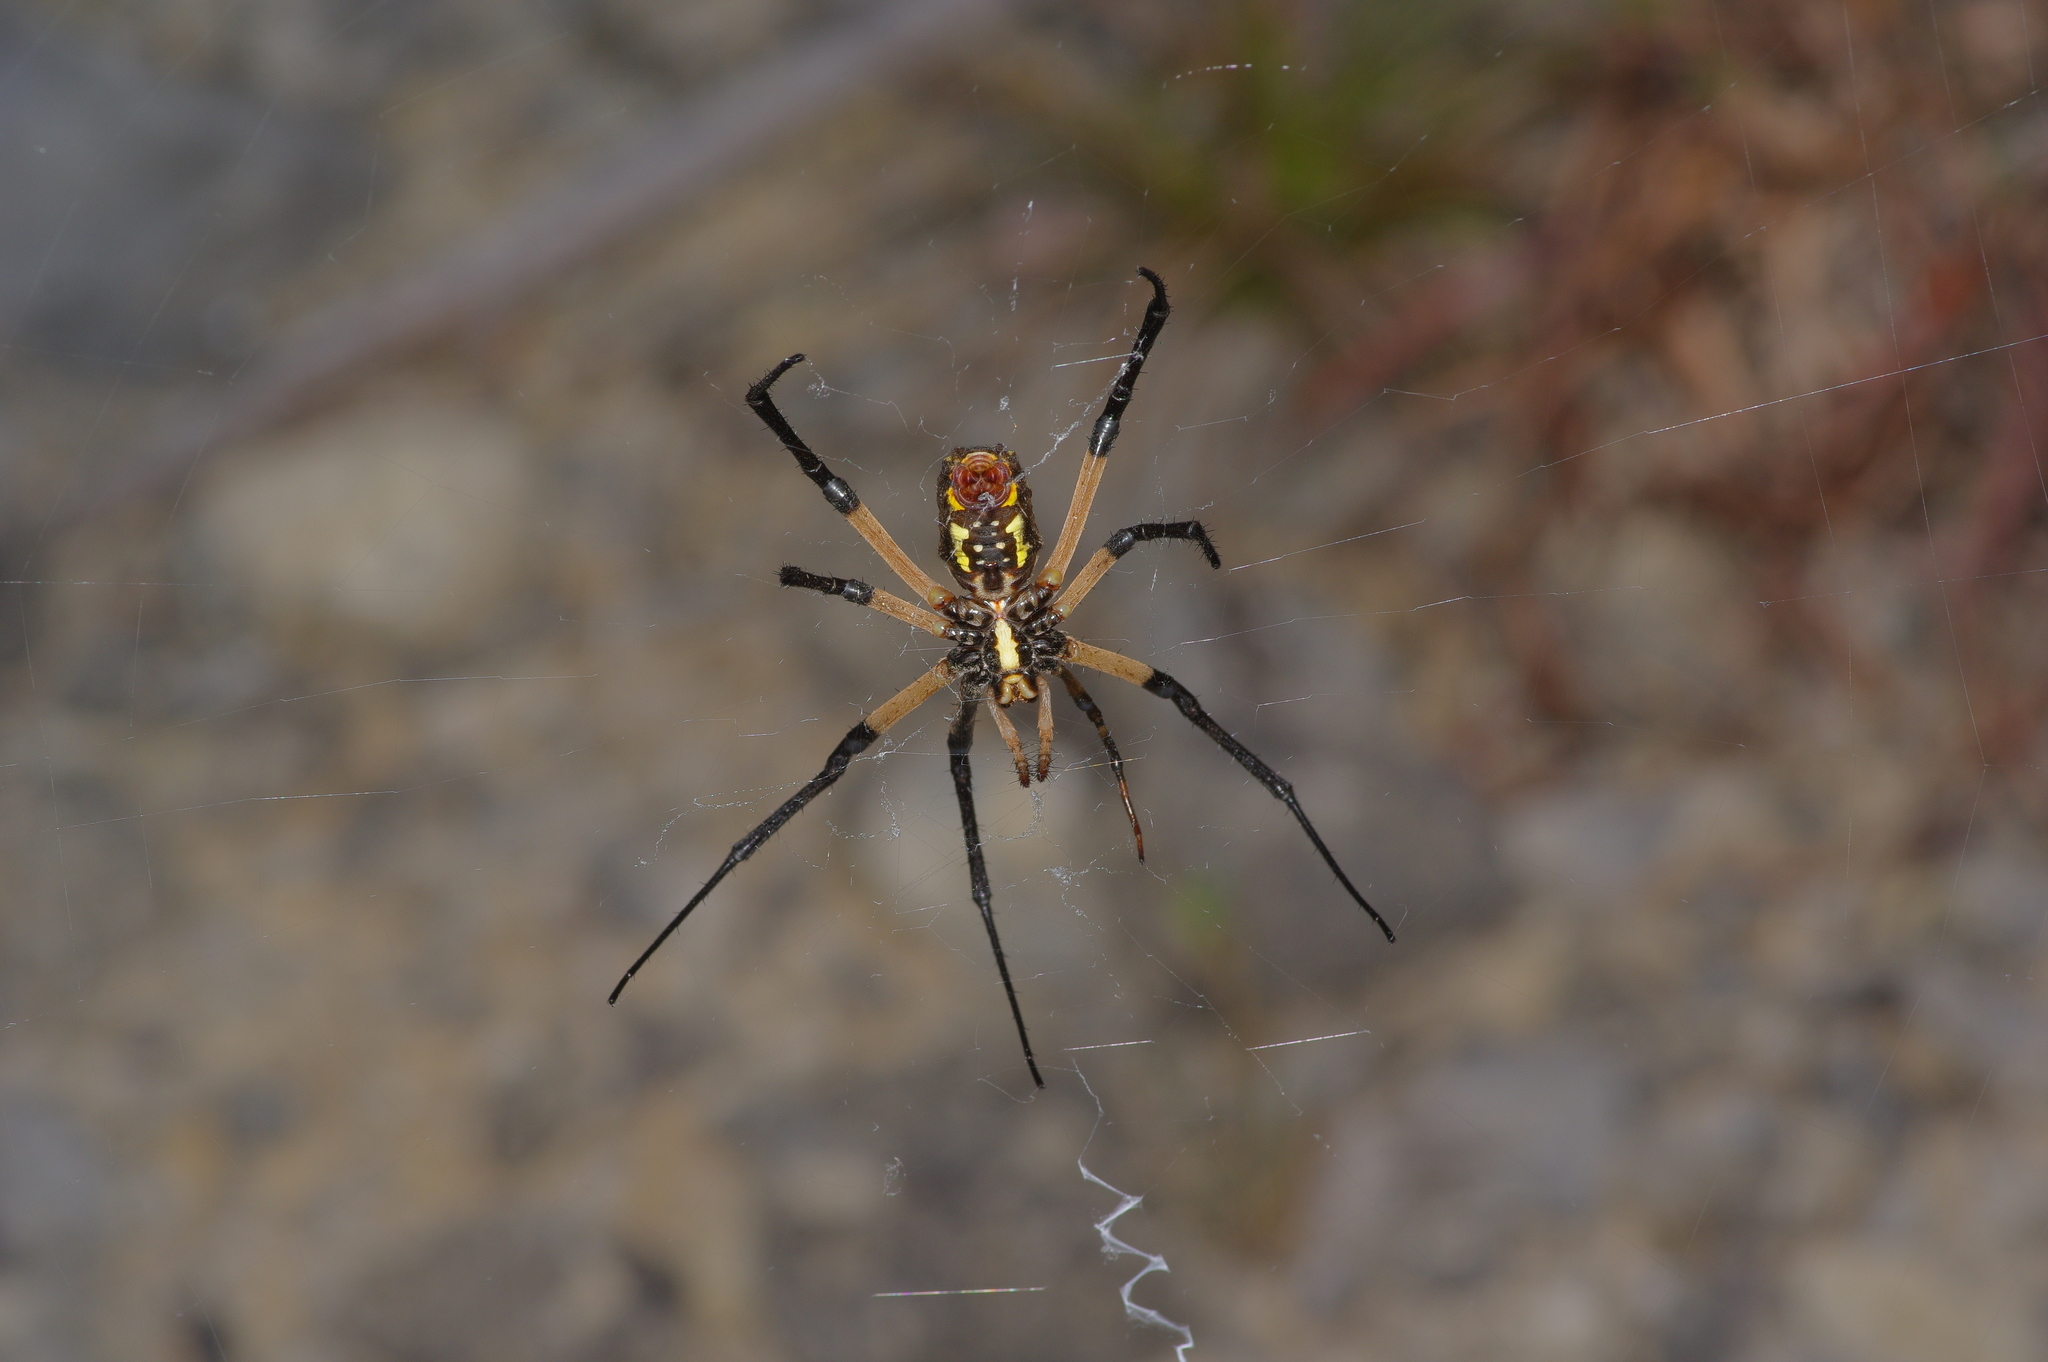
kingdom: Animalia
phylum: Arthropoda
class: Arachnida
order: Araneae
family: Araneidae
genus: Argiope
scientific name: Argiope aurantia
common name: Orb weavers
